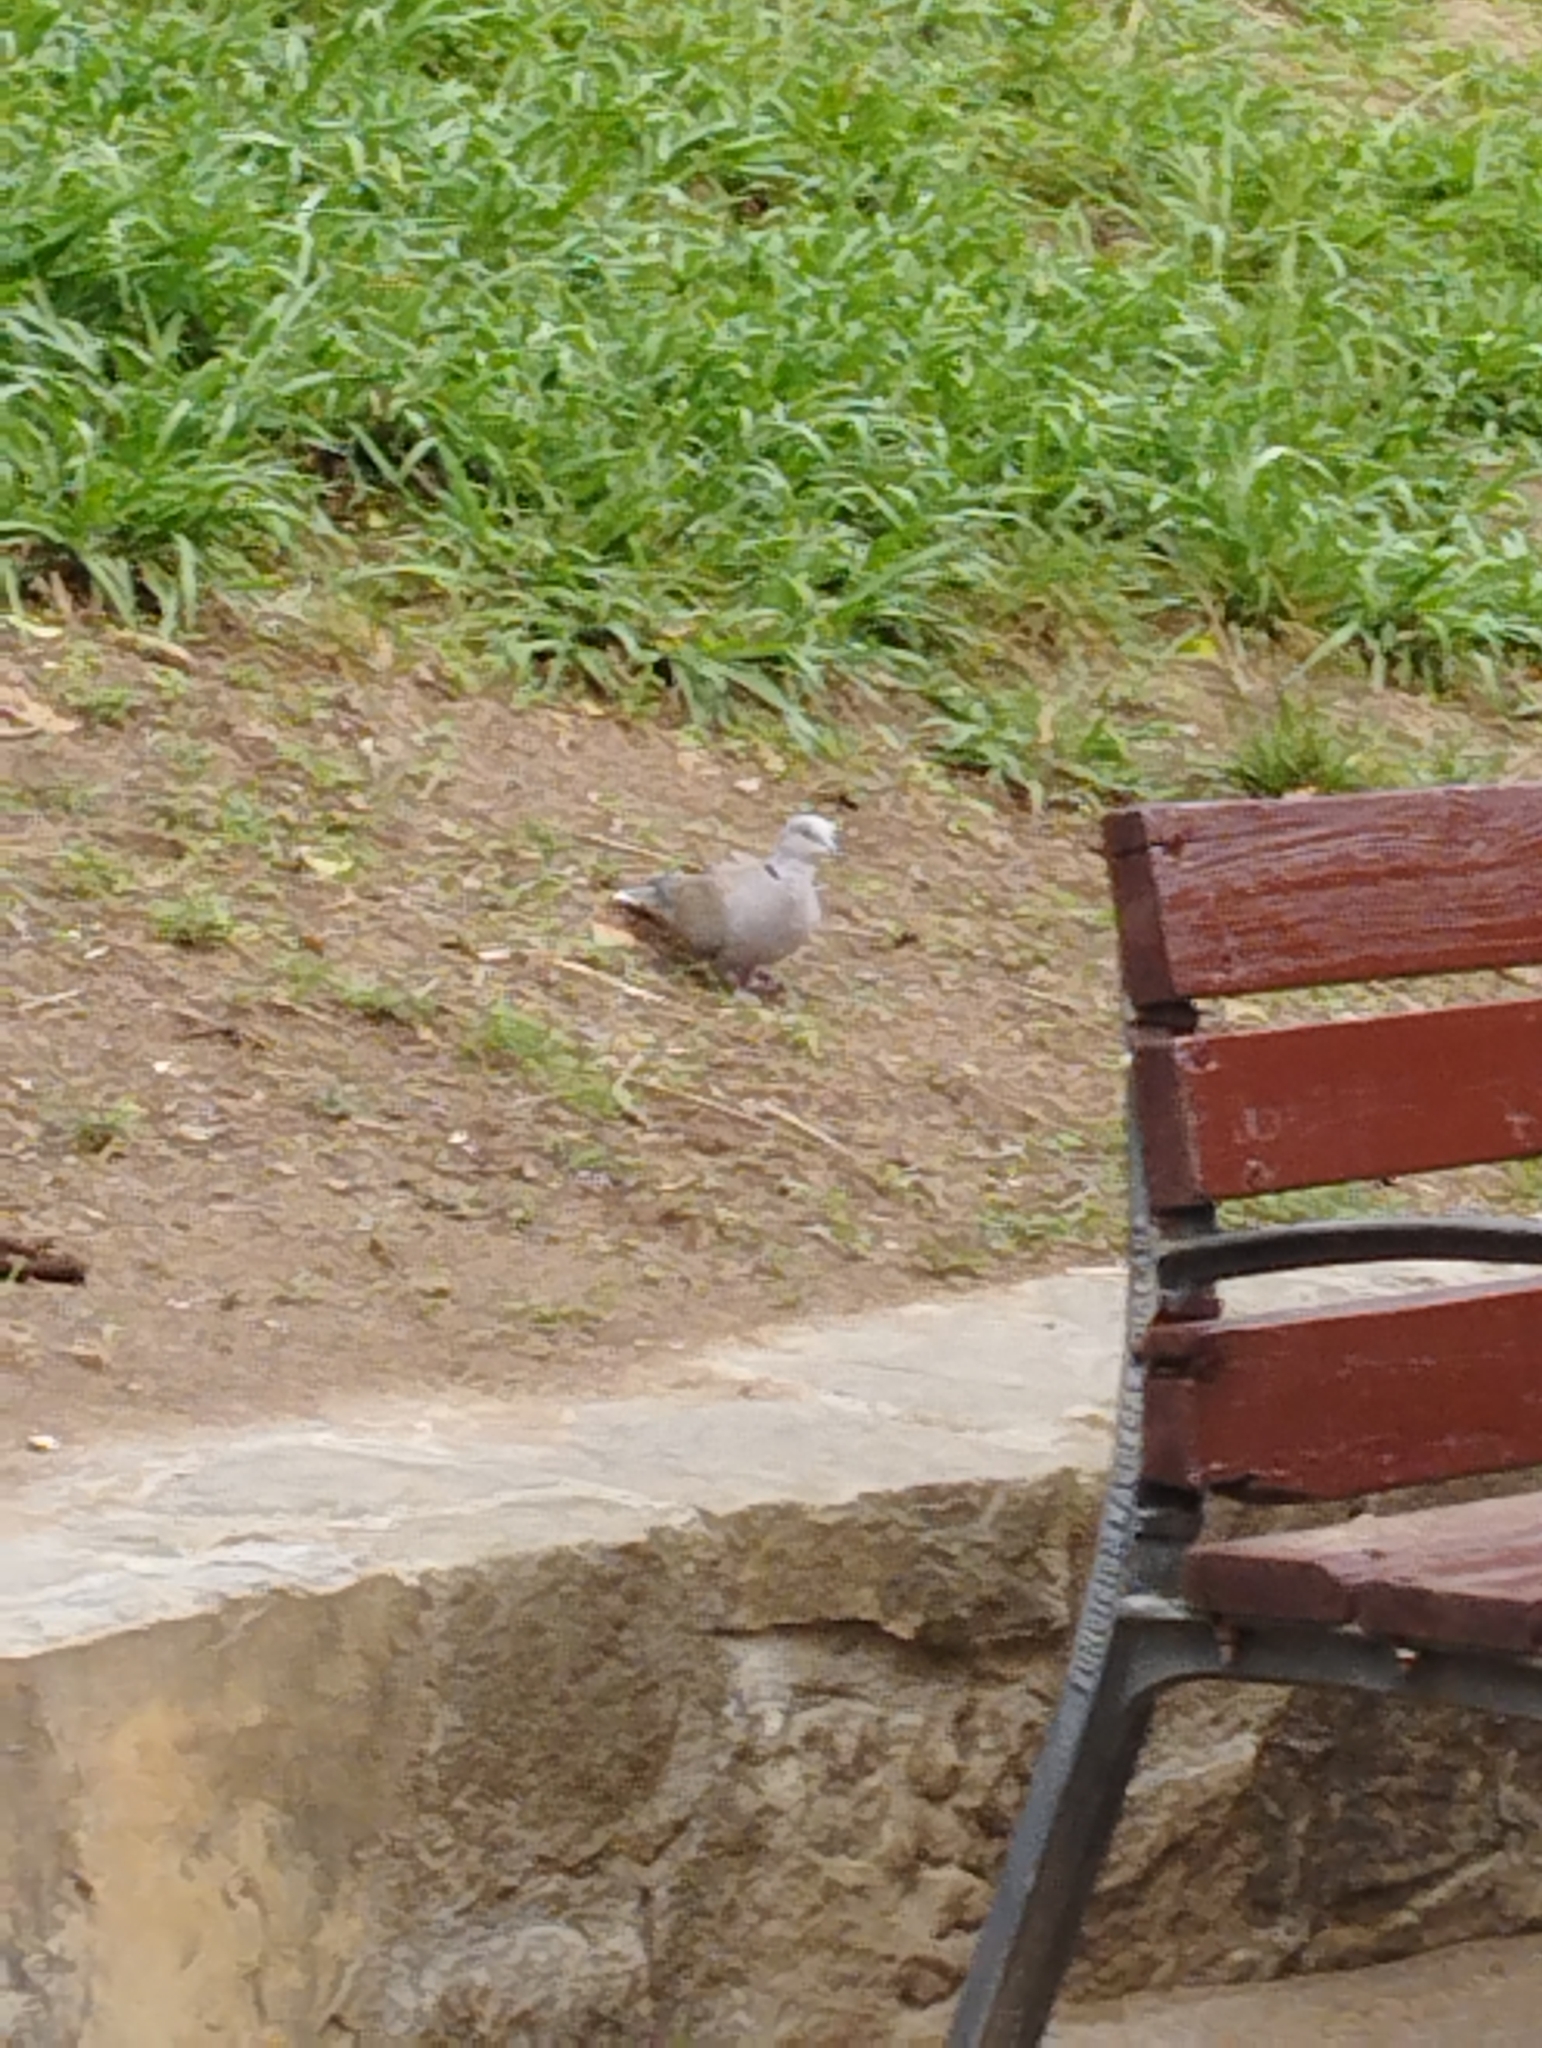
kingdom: Animalia
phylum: Chordata
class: Aves
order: Columbiformes
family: Columbidae
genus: Streptopelia
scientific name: Streptopelia decaocto
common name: Eurasian collared dove
